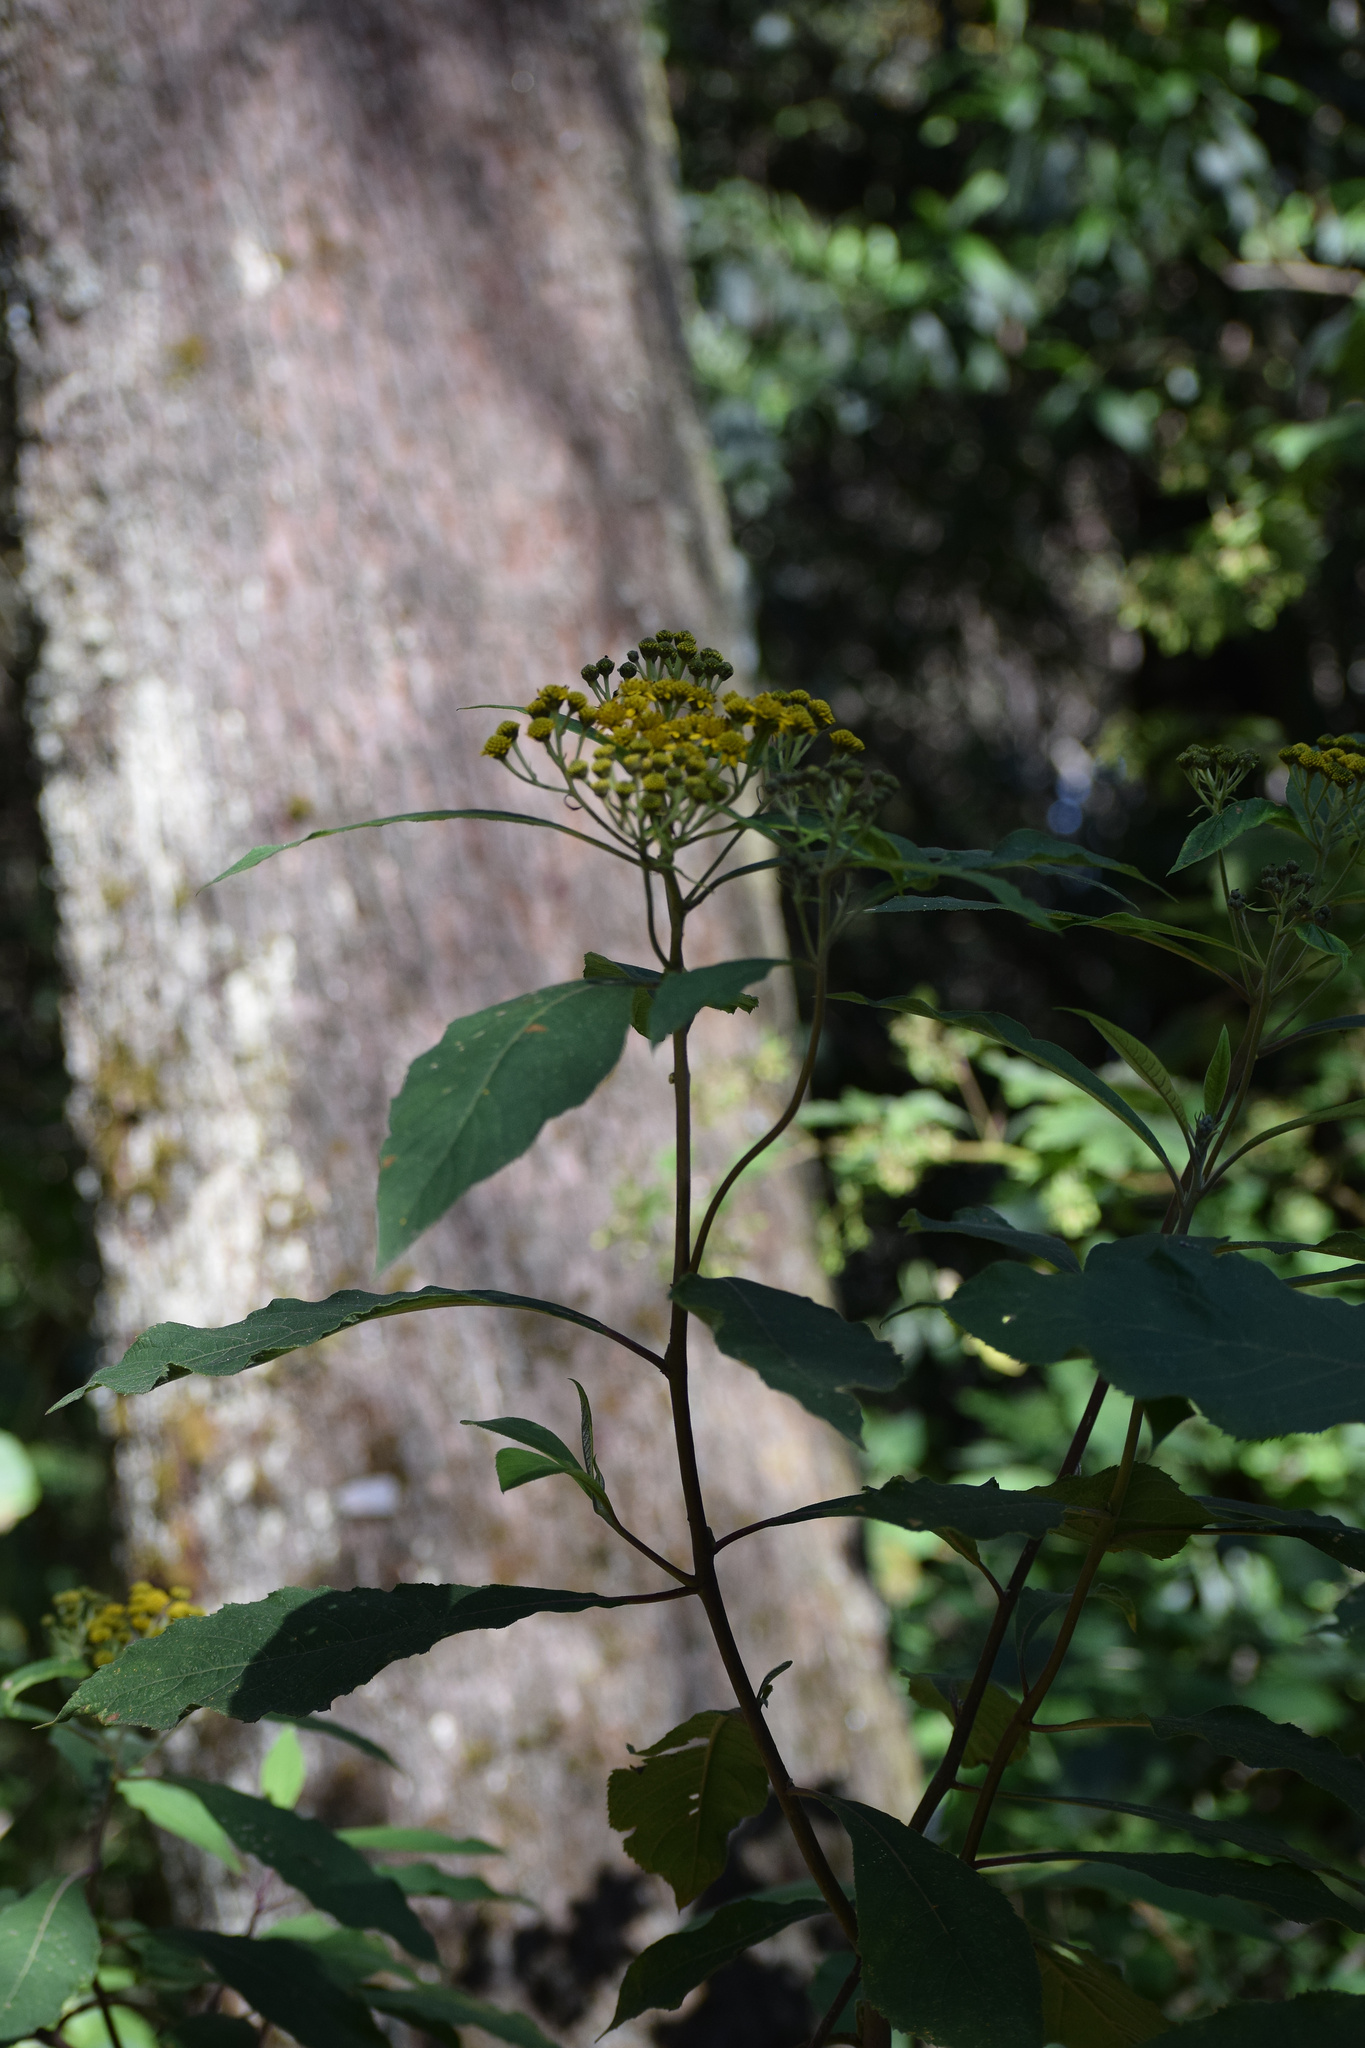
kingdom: Plantae
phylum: Tracheophyta
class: Magnoliopsida
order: Asterales
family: Asteraceae
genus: Verbesina
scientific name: Verbesina oncophora
